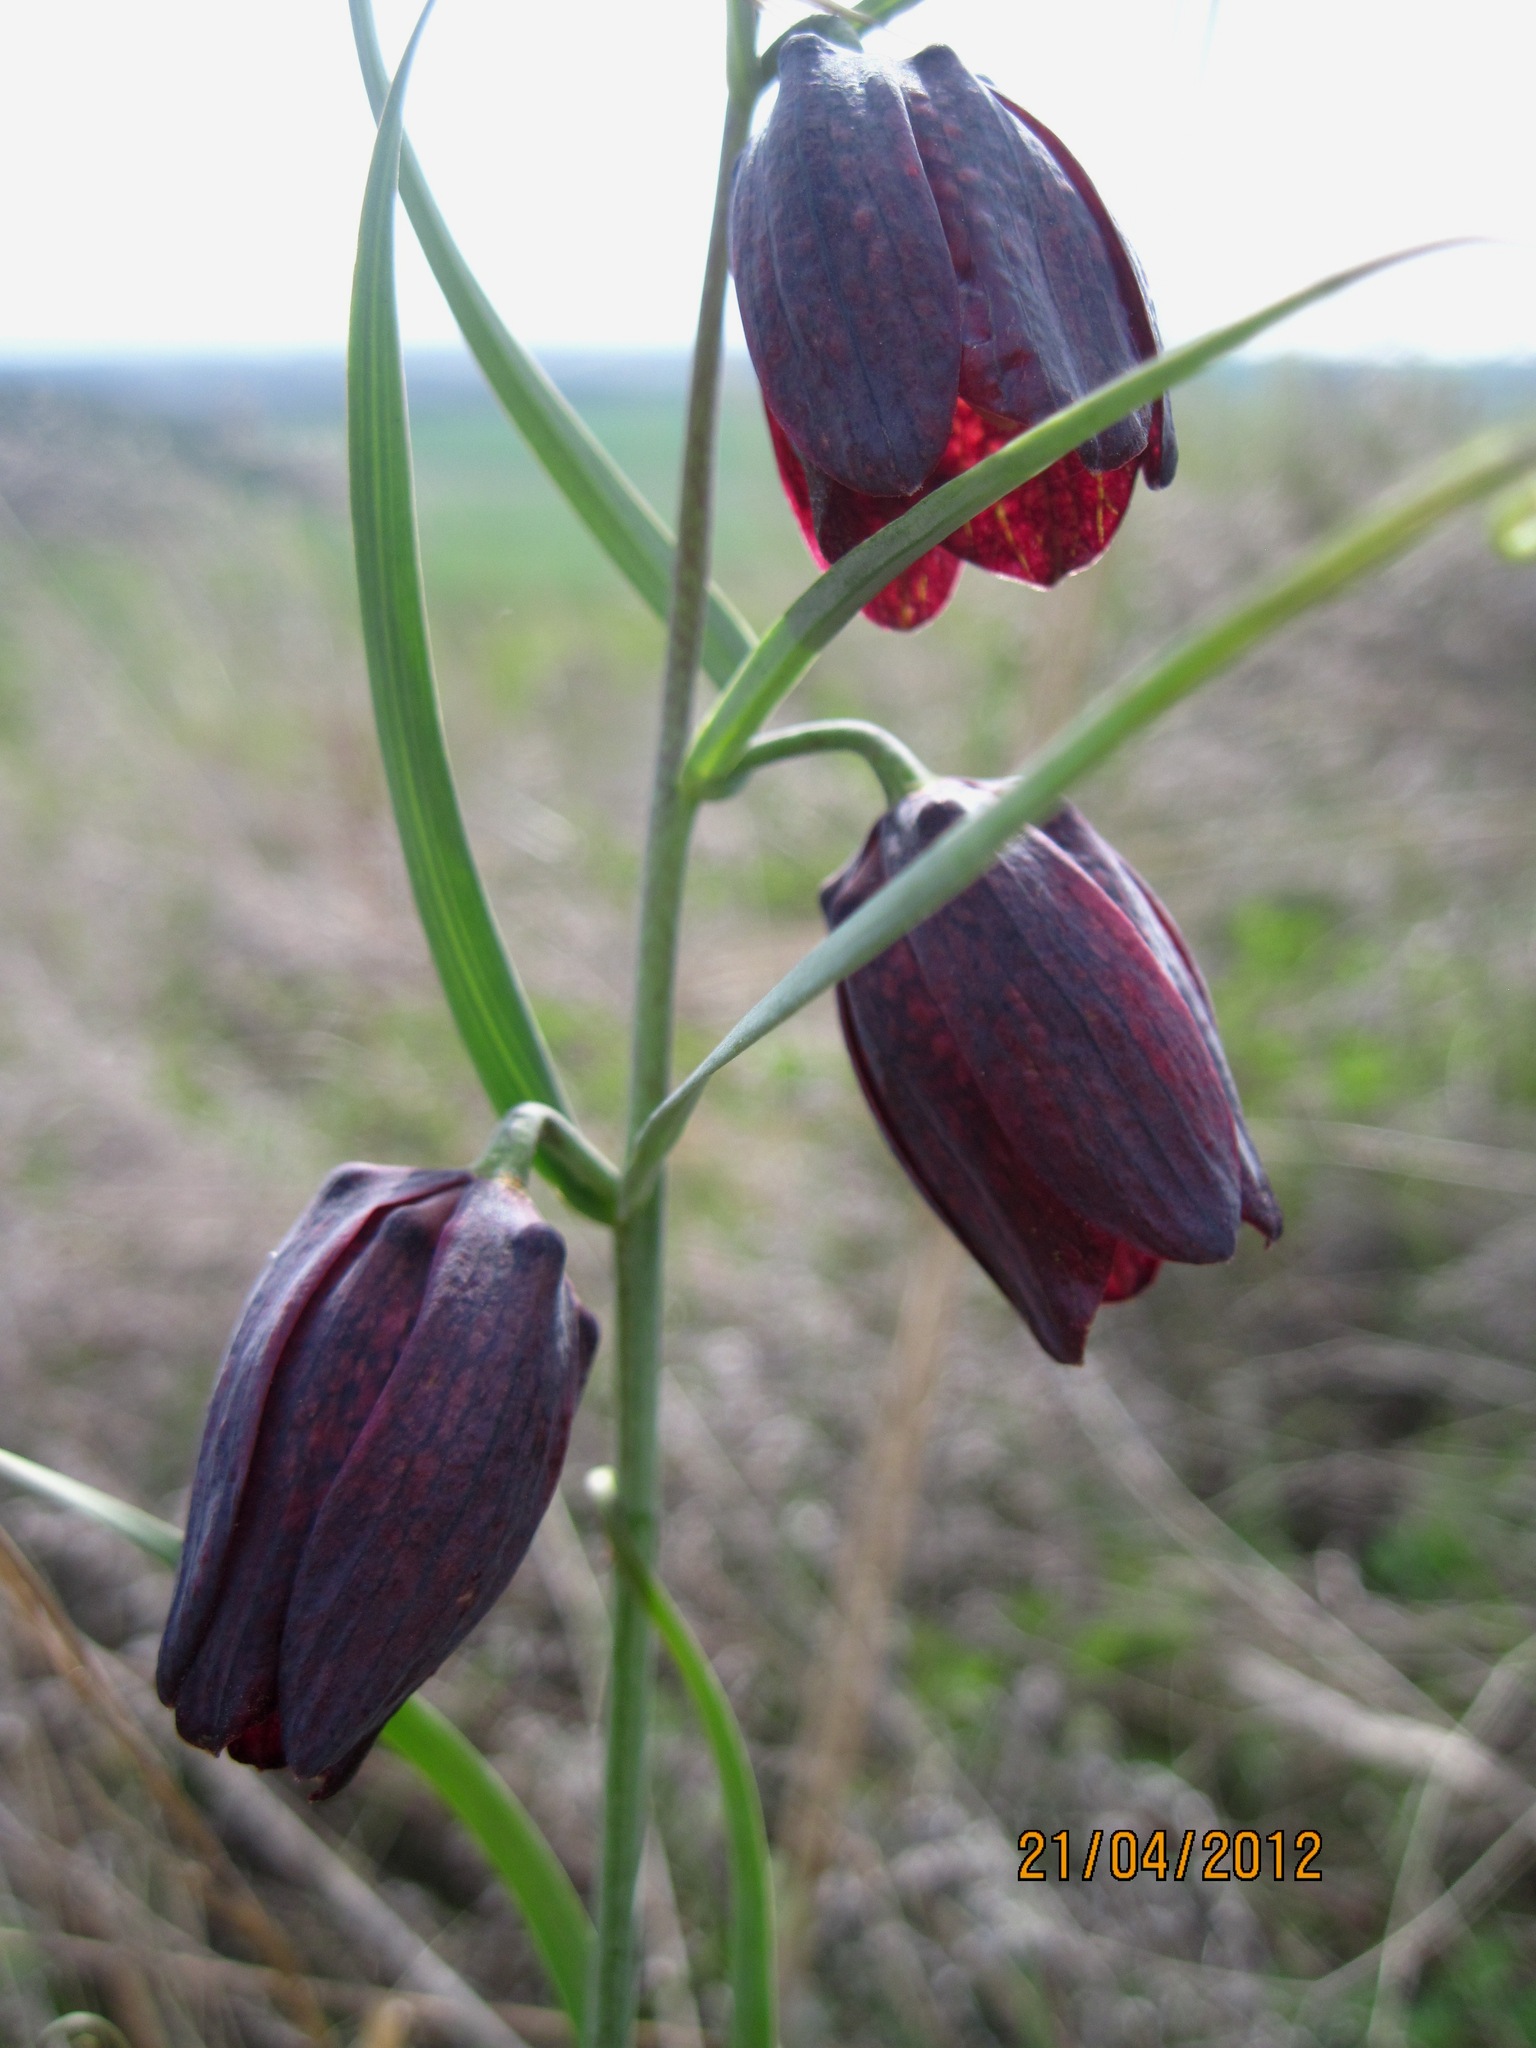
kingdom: Plantae
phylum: Tracheophyta
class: Liliopsida
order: Liliales
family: Liliaceae
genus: Fritillaria
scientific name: Fritillaria ruthenica
